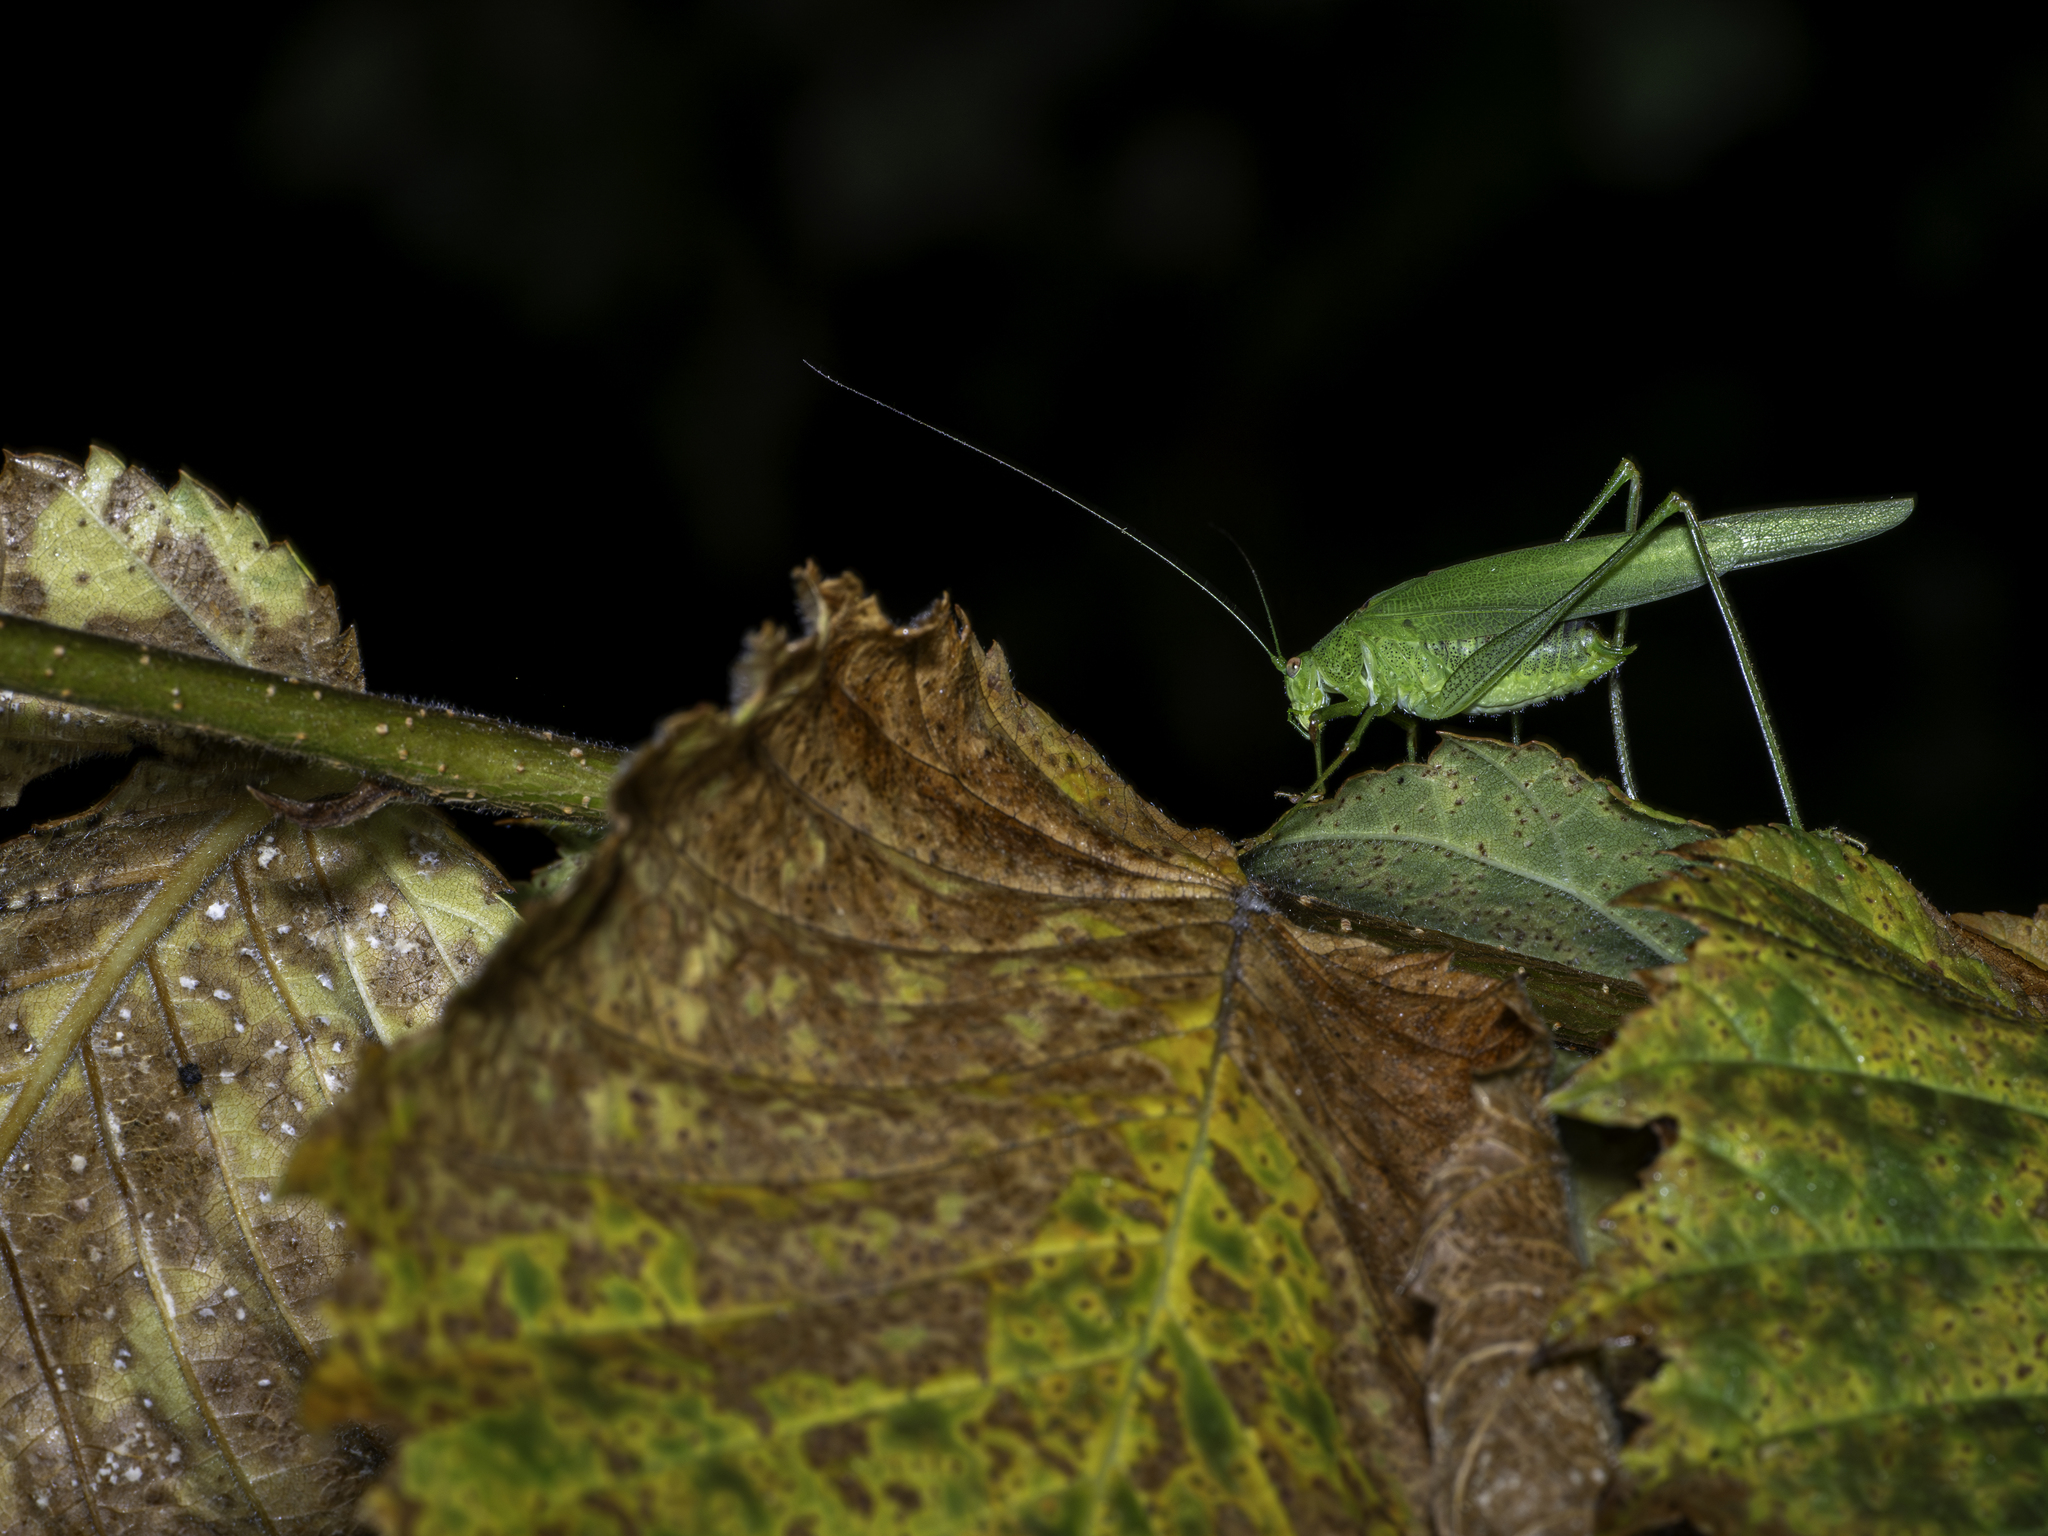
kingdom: Animalia
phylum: Arthropoda
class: Insecta
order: Orthoptera
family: Tettigoniidae
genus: Phaneroptera
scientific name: Phaneroptera nana
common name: Southern sickle bush-cricket
